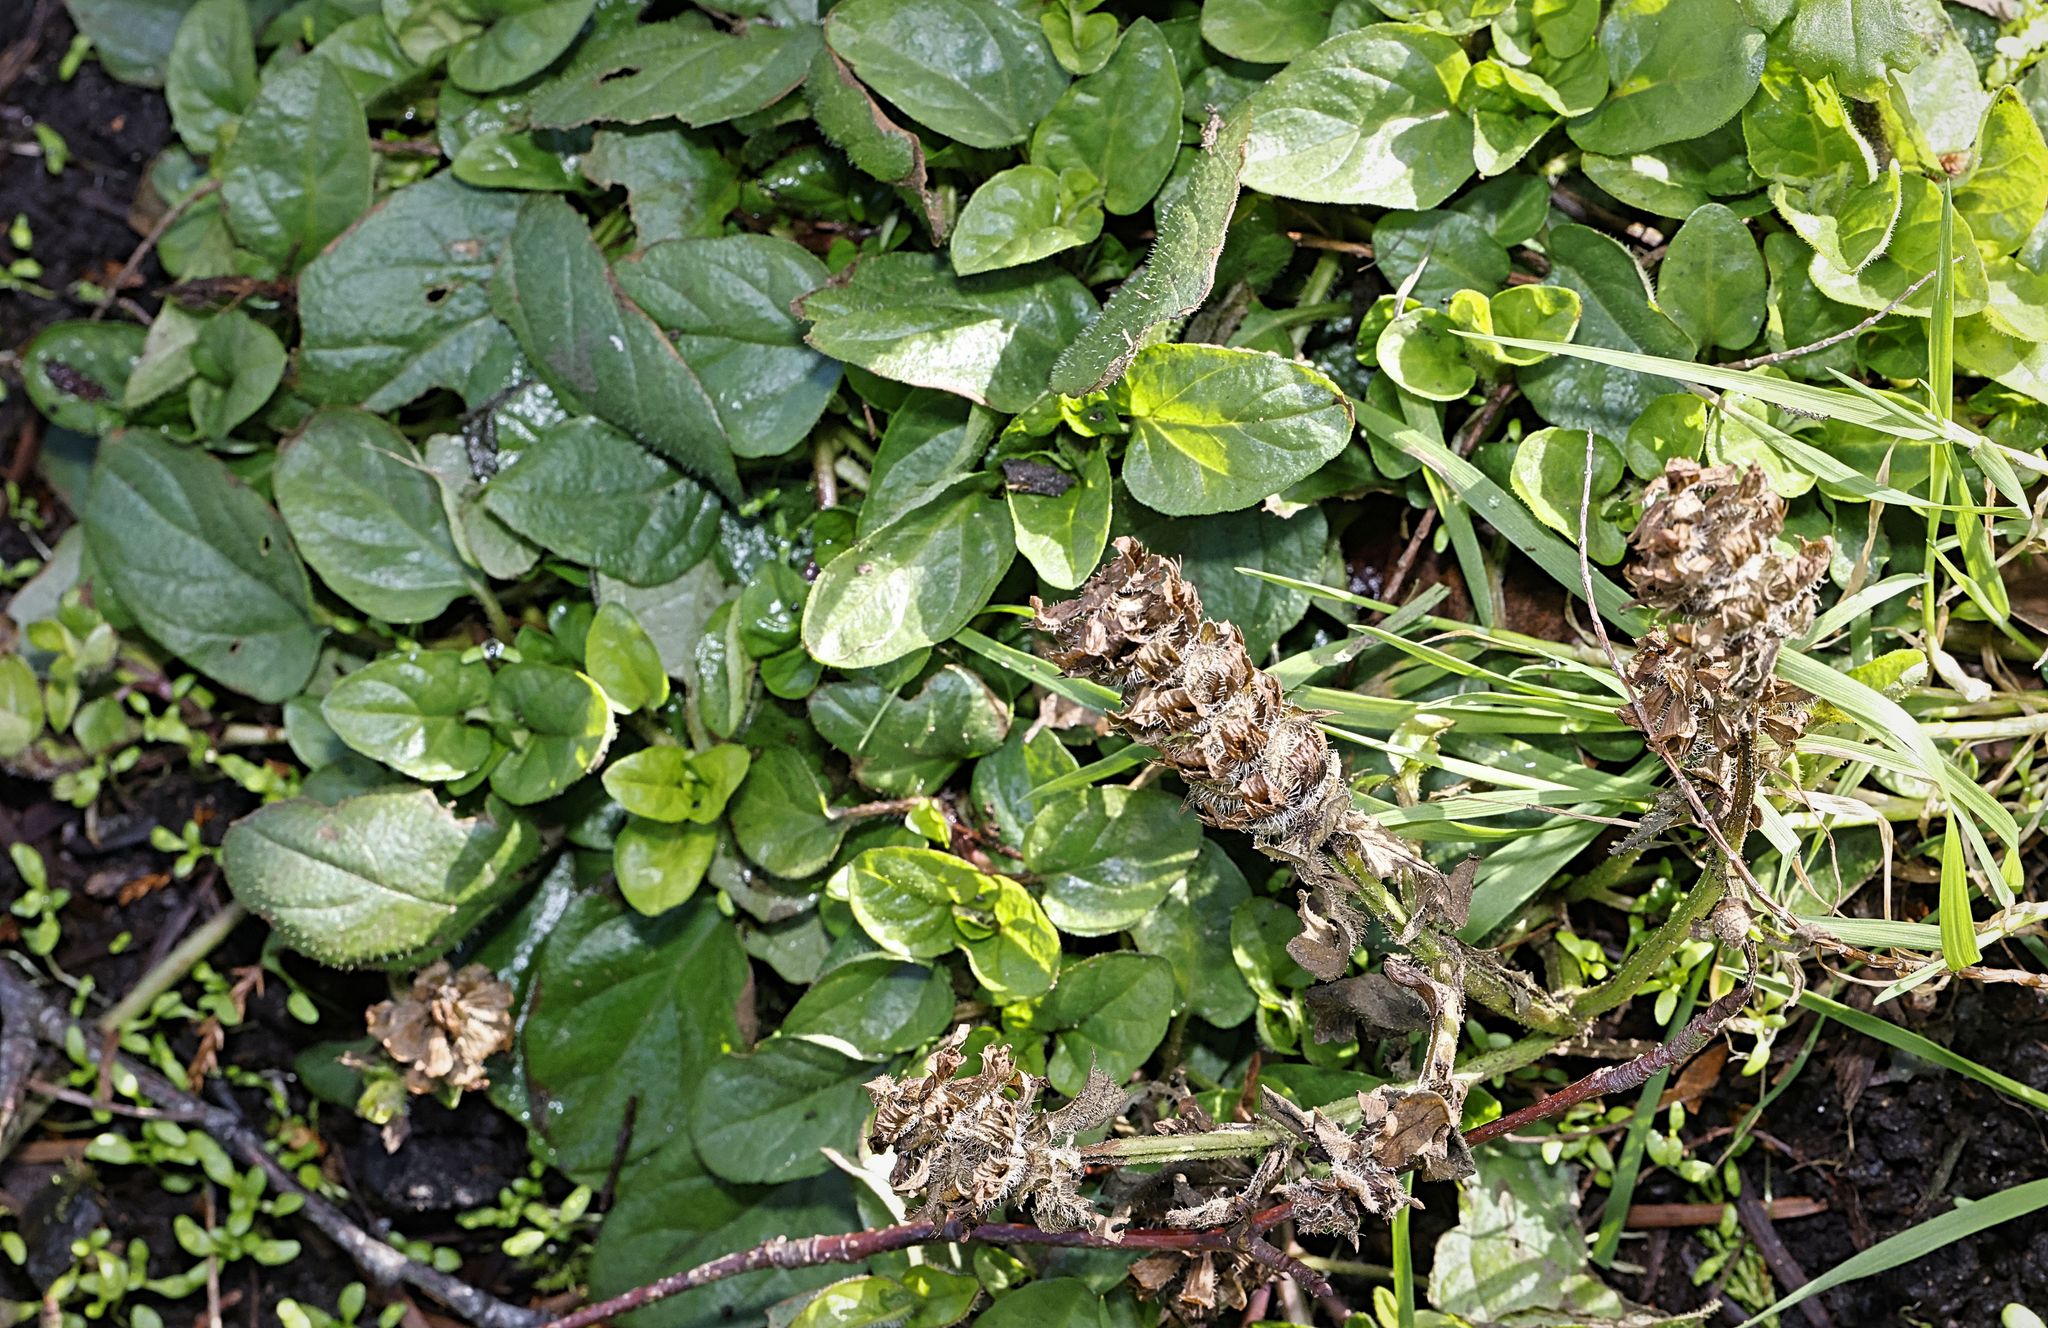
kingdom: Plantae
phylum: Tracheophyta
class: Magnoliopsida
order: Lamiales
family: Lamiaceae
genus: Prunella
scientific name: Prunella vulgaris
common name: Heal-all
